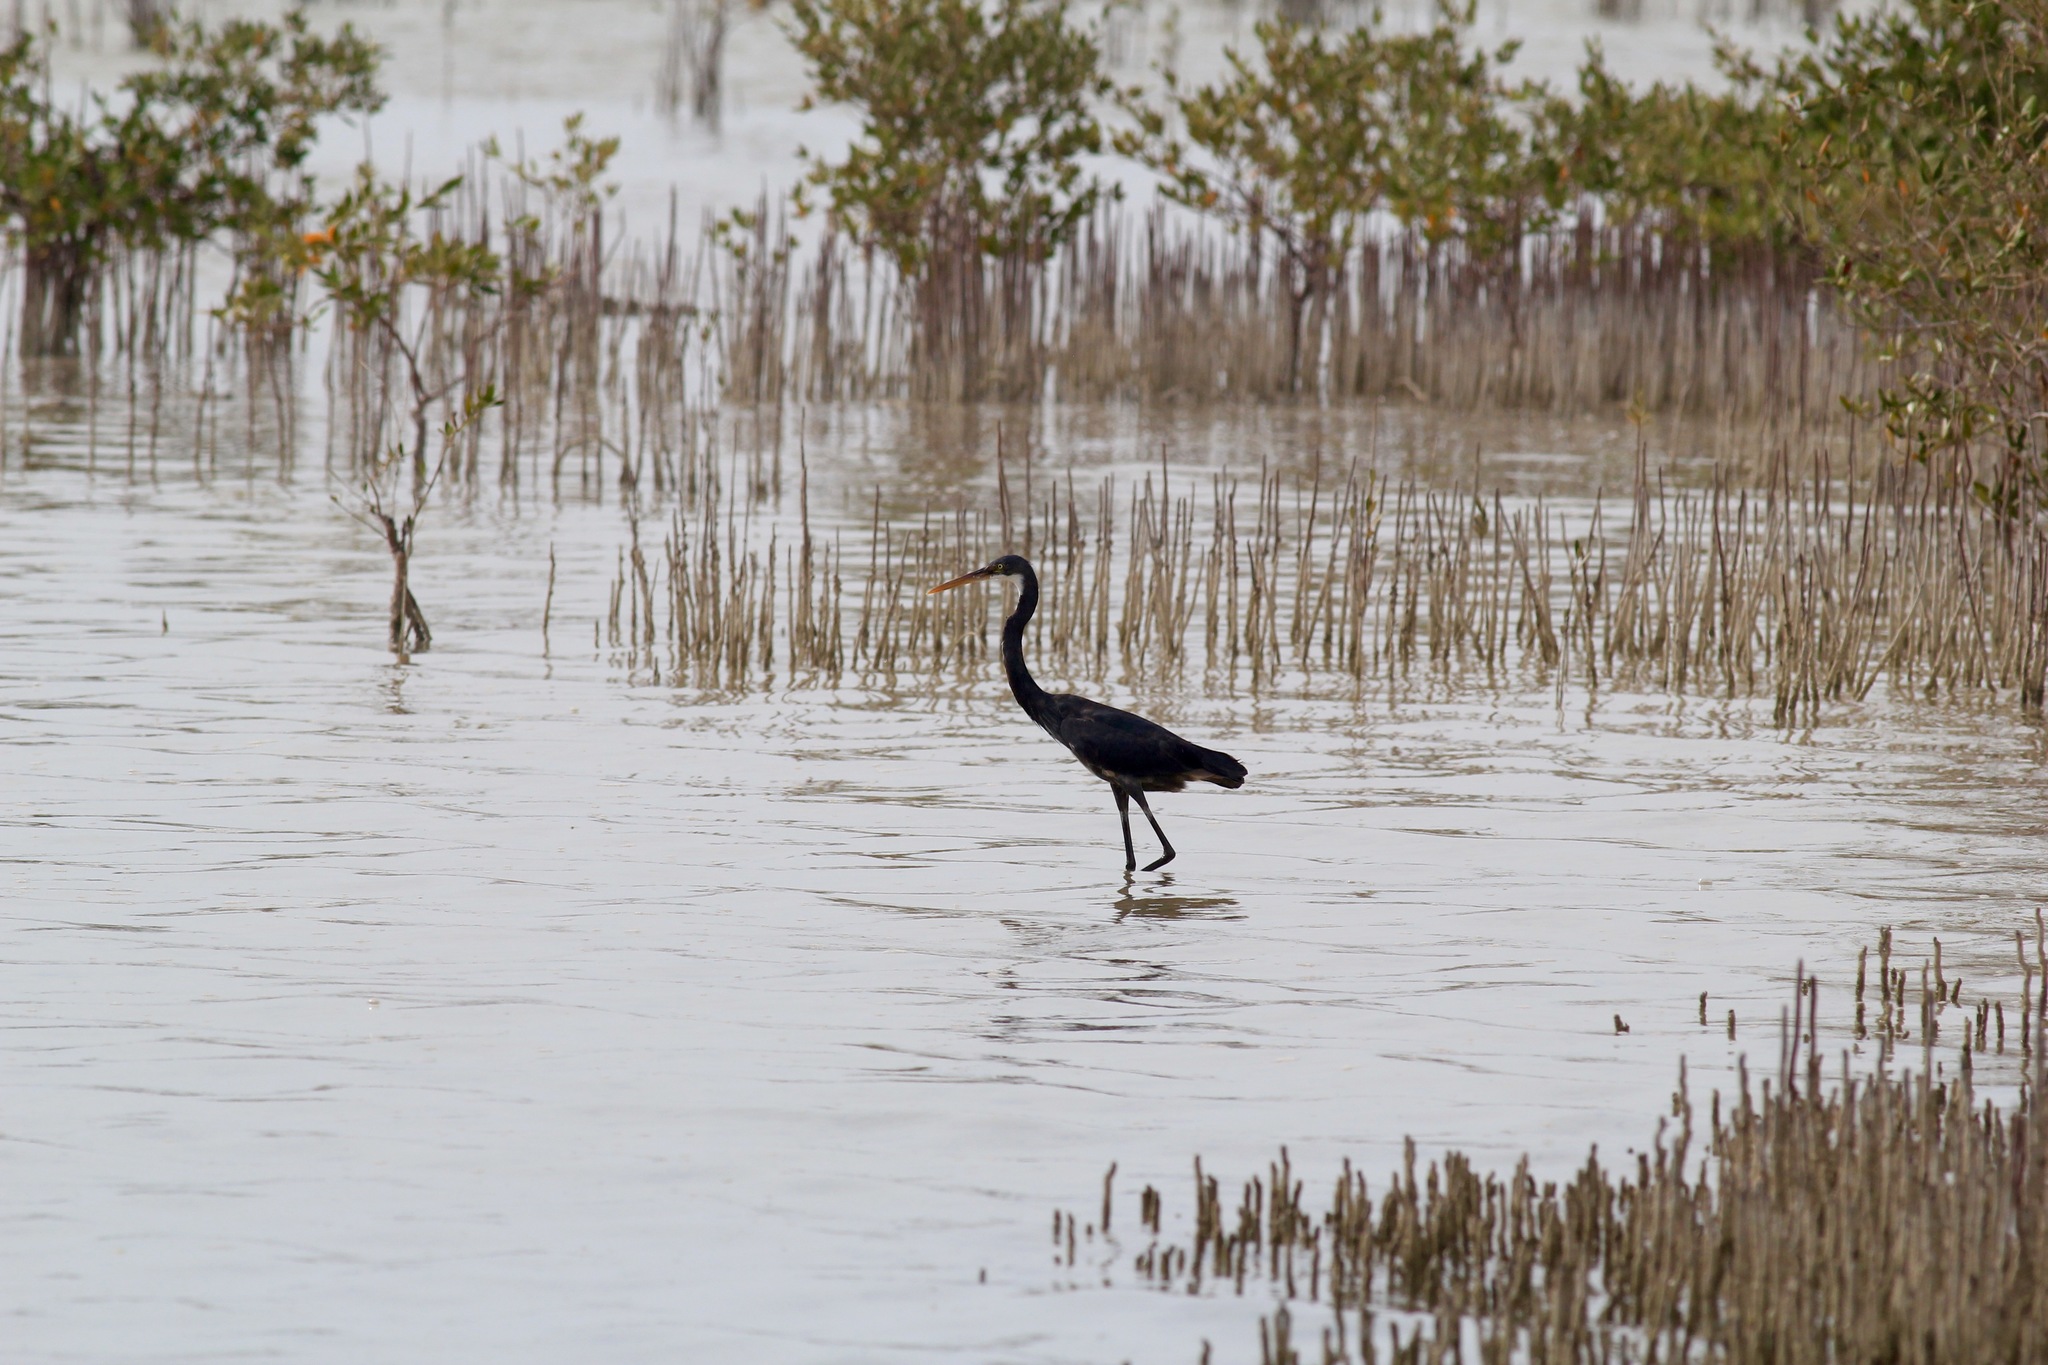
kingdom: Animalia
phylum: Chordata
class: Aves
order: Pelecaniformes
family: Ardeidae
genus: Egretta
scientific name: Egretta gularis
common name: Western reef-heron
